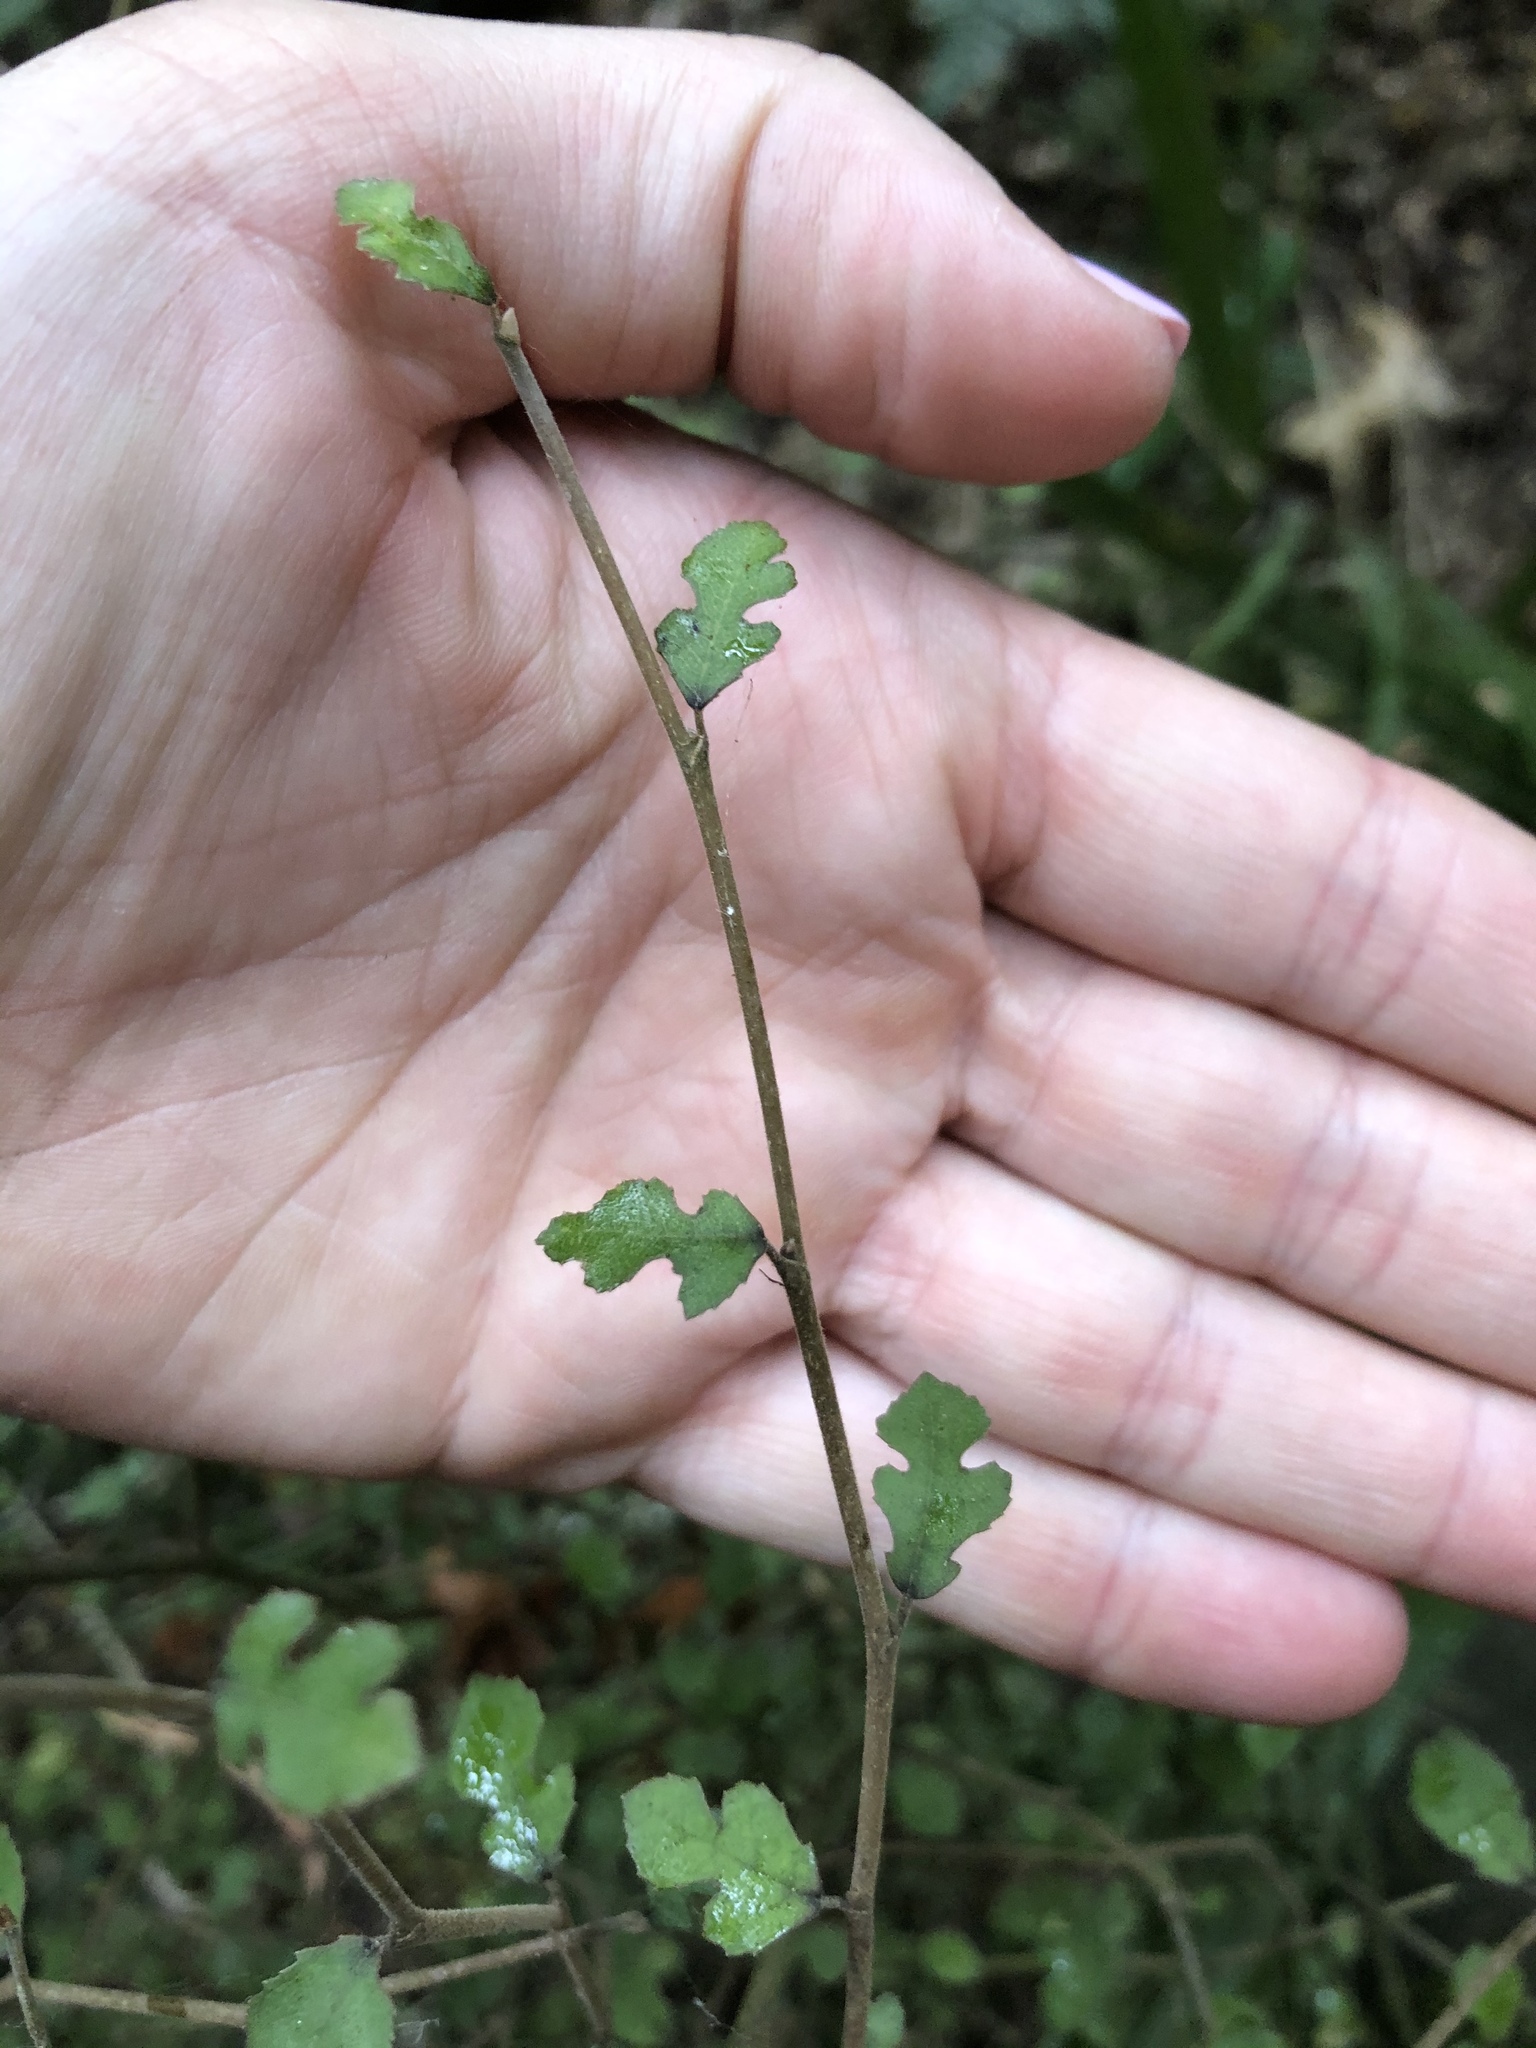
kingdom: Plantae
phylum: Tracheophyta
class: Magnoliopsida
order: Rosales
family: Moraceae
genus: Paratrophis
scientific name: Paratrophis microphylla
